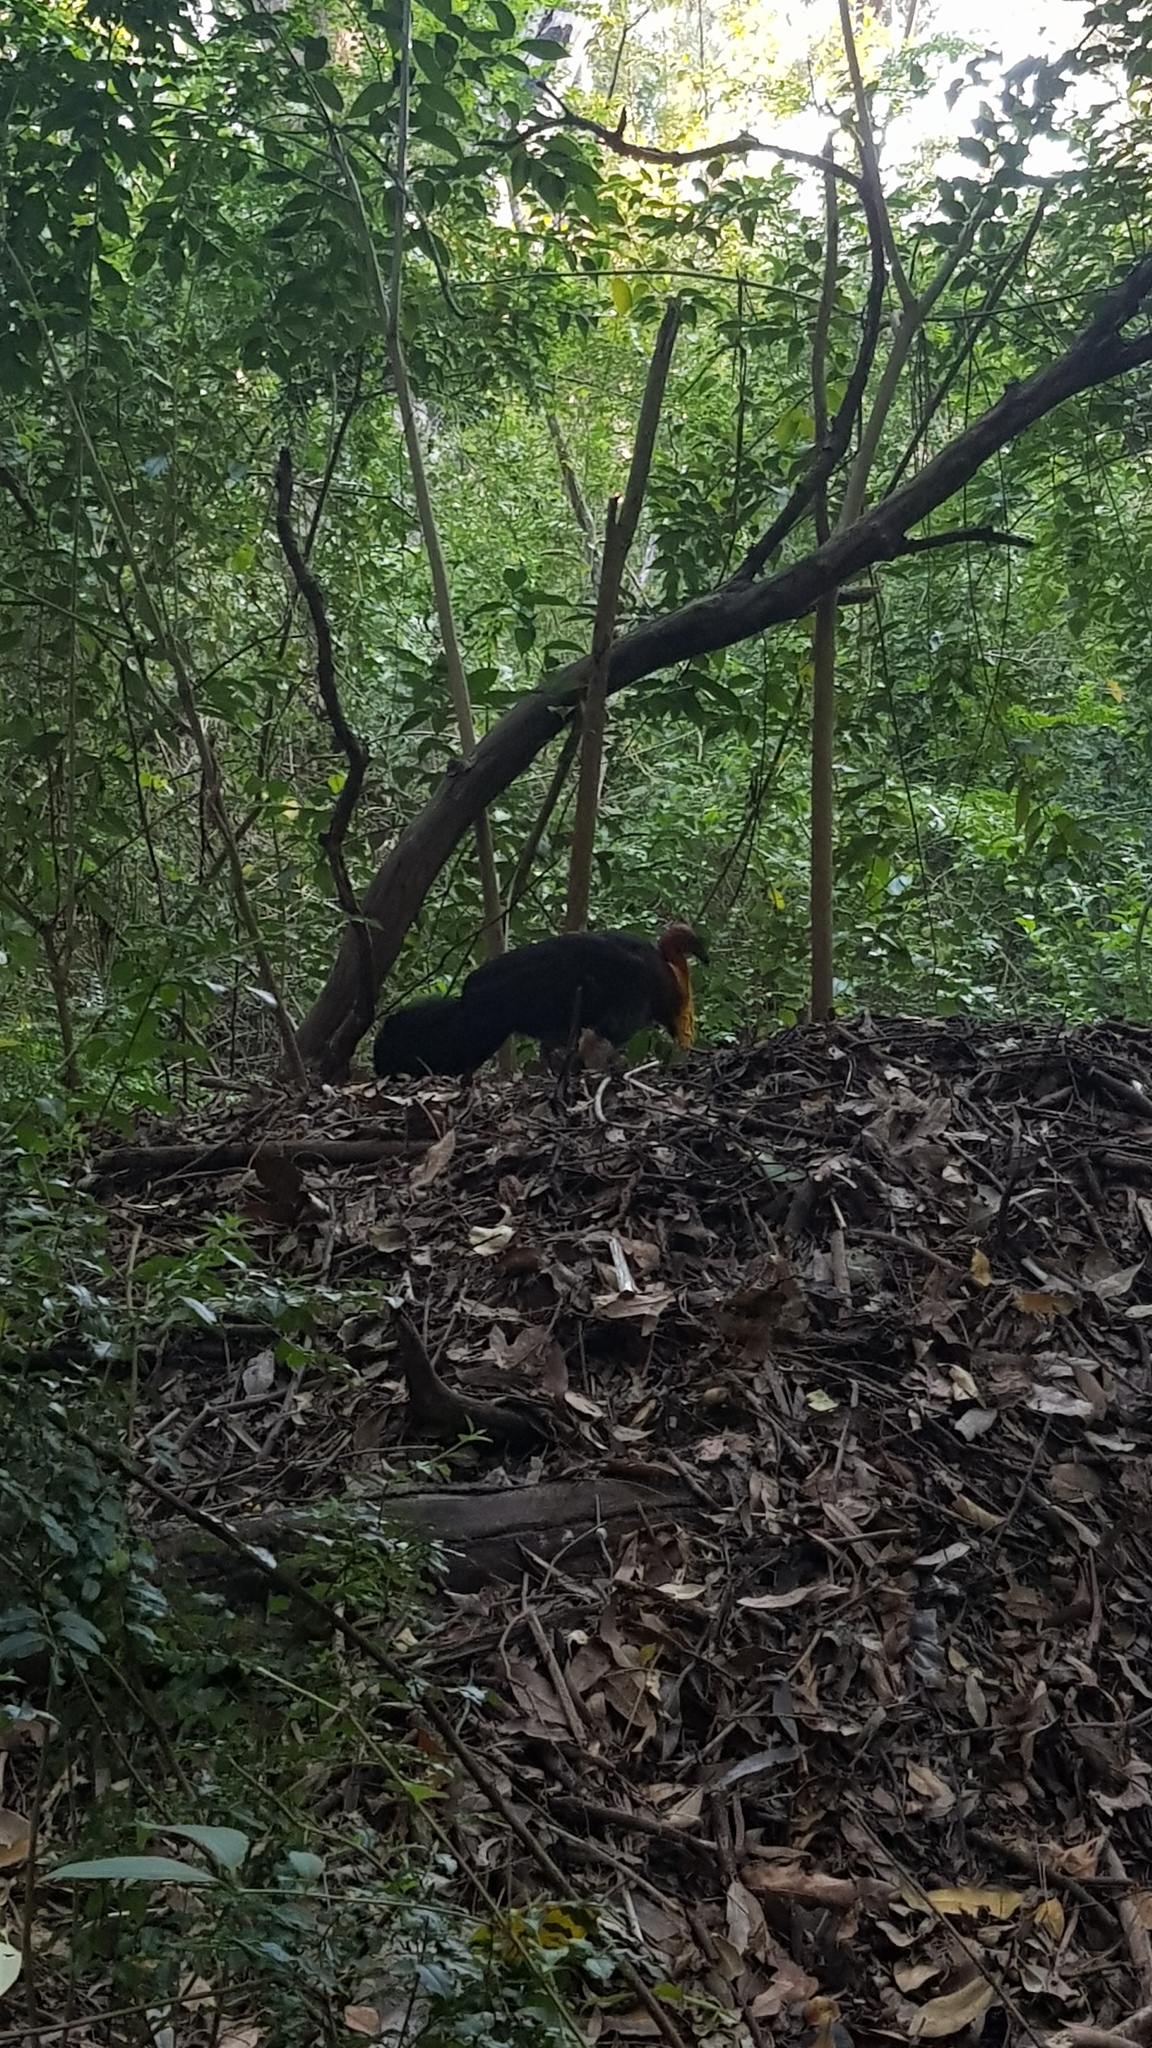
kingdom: Animalia
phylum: Chordata
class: Aves
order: Galliformes
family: Megapodiidae
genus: Alectura
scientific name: Alectura lathami
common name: Australian brushturkey
